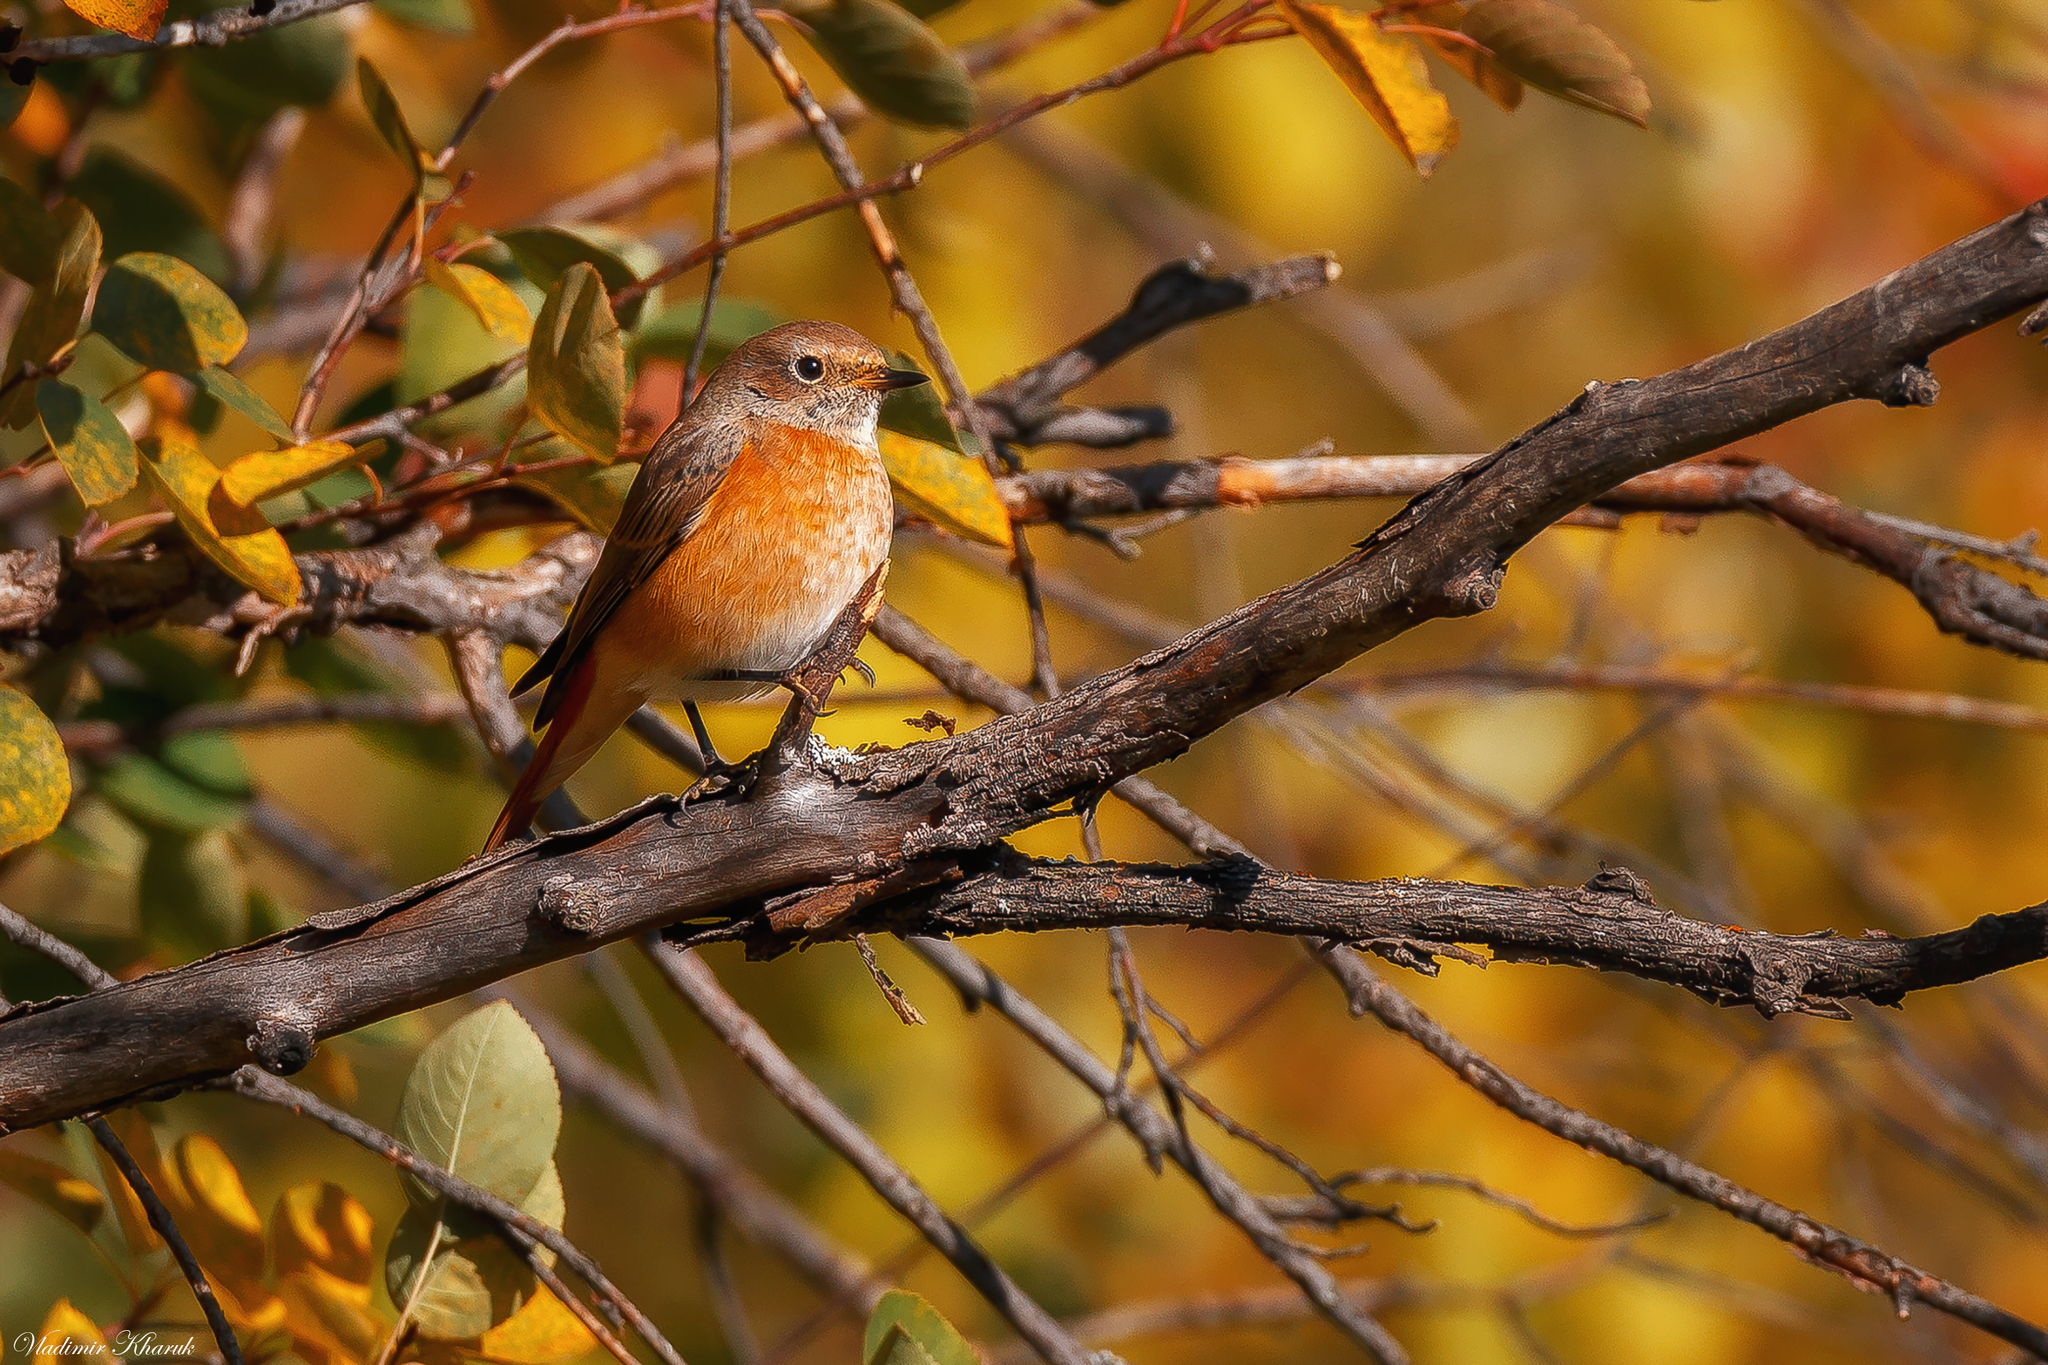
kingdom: Animalia
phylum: Chordata
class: Aves
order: Passeriformes
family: Muscicapidae
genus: Phoenicurus
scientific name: Phoenicurus phoenicurus
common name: Common redstart
